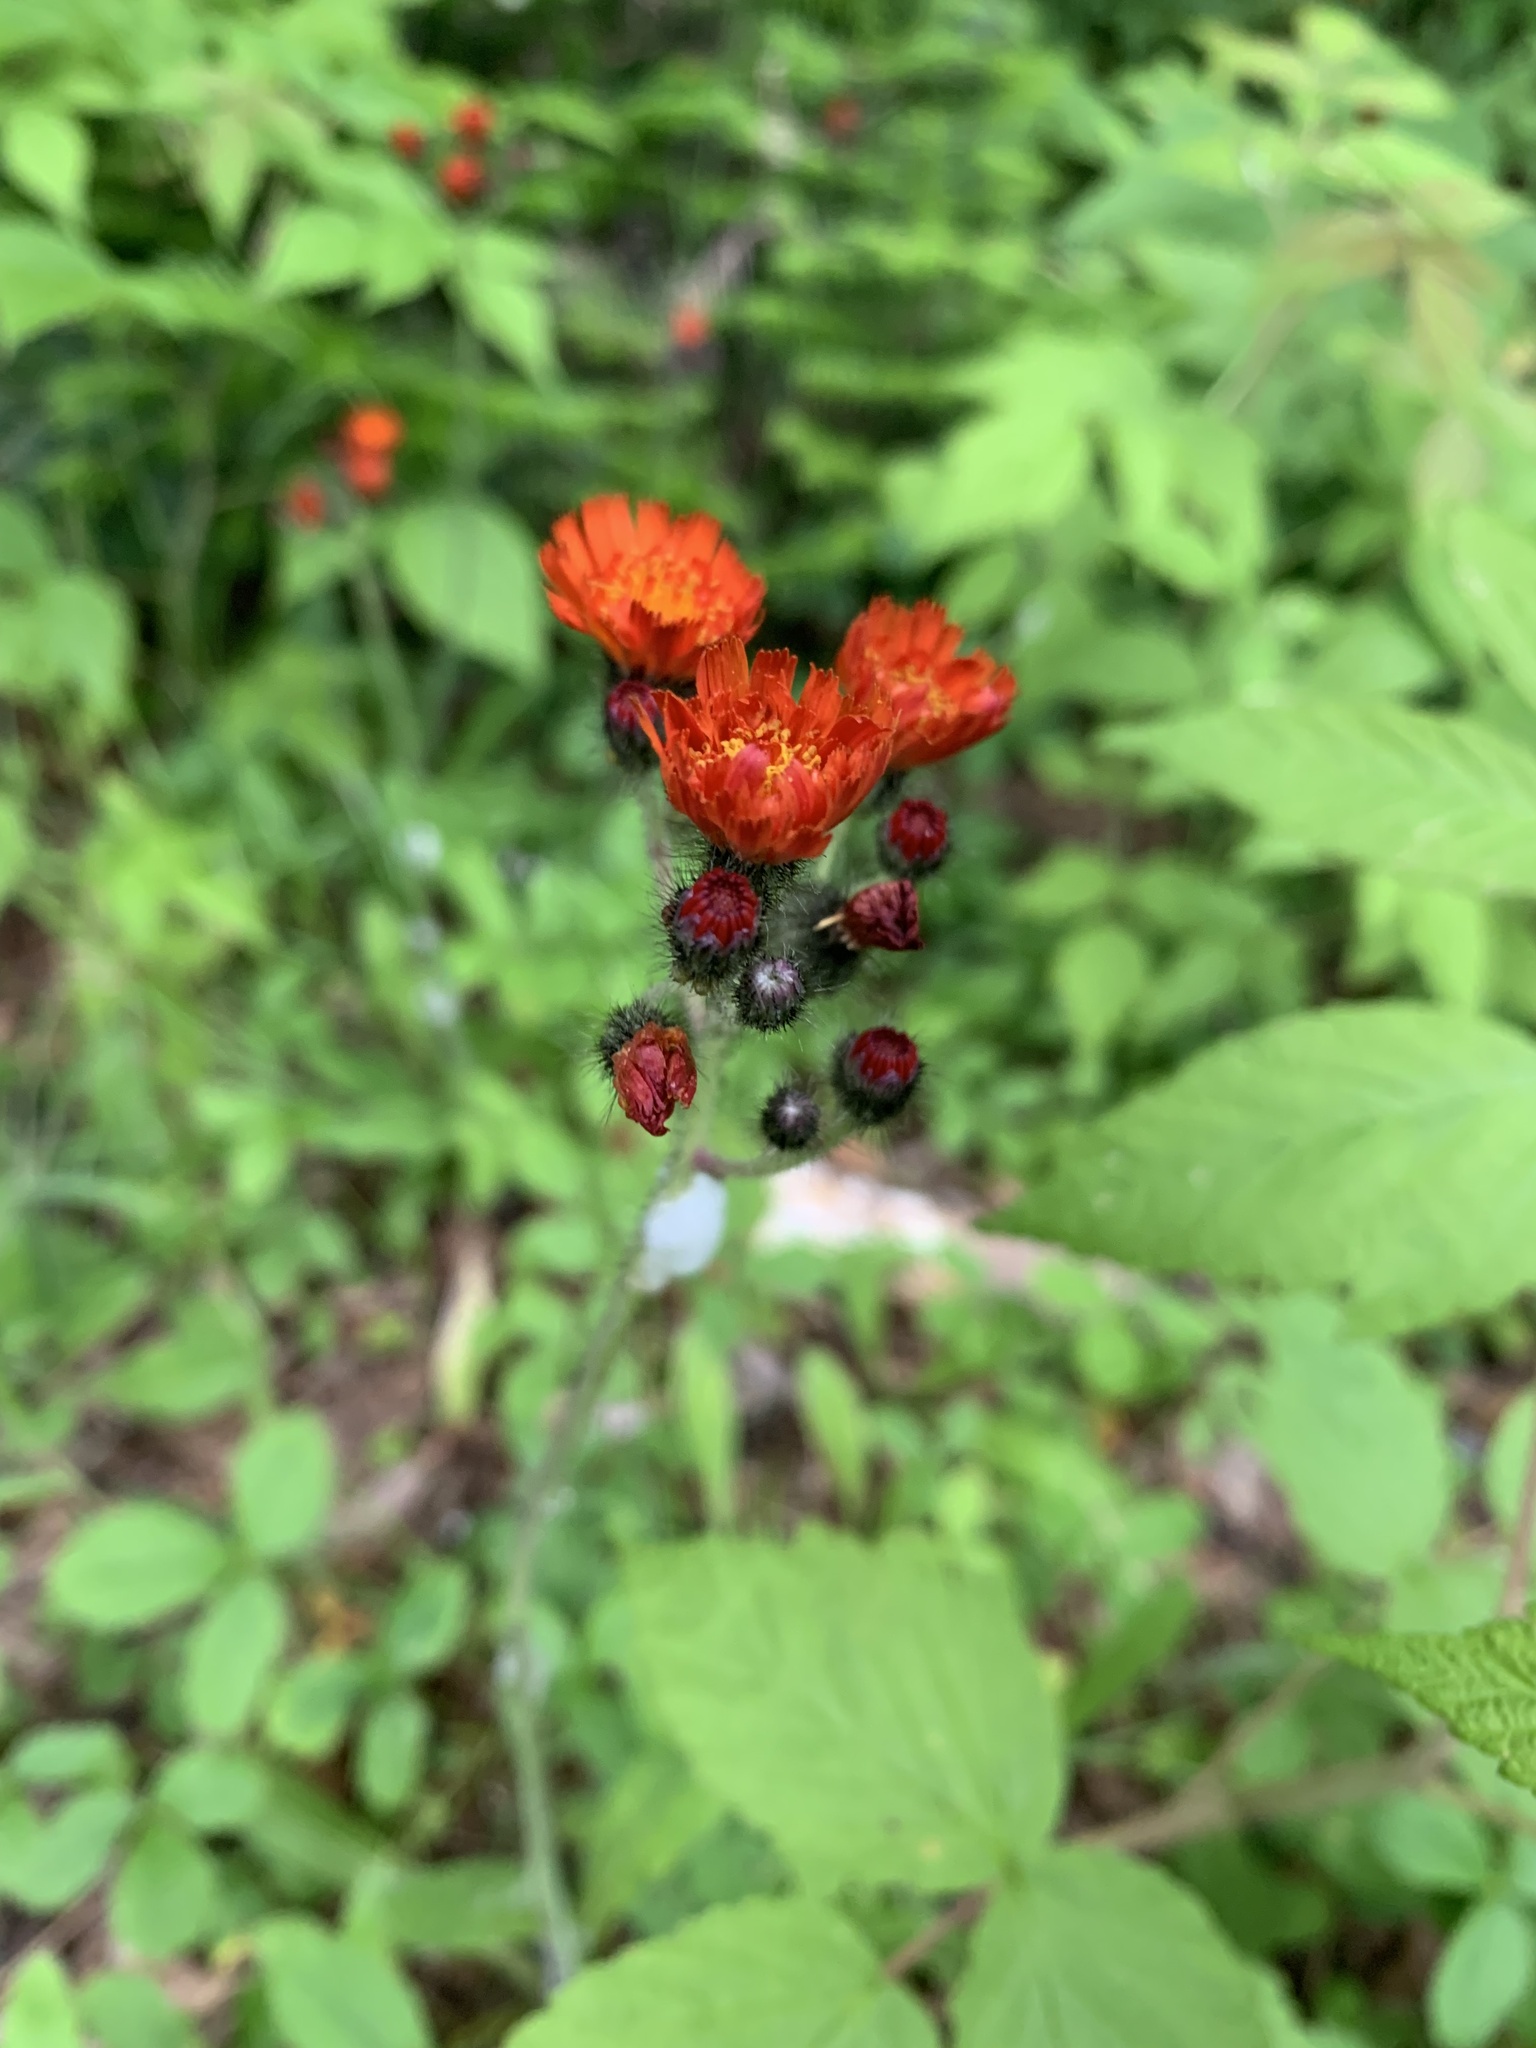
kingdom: Plantae
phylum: Tracheophyta
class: Magnoliopsida
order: Asterales
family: Asteraceae
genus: Pilosella
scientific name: Pilosella aurantiaca
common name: Fox-and-cubs
